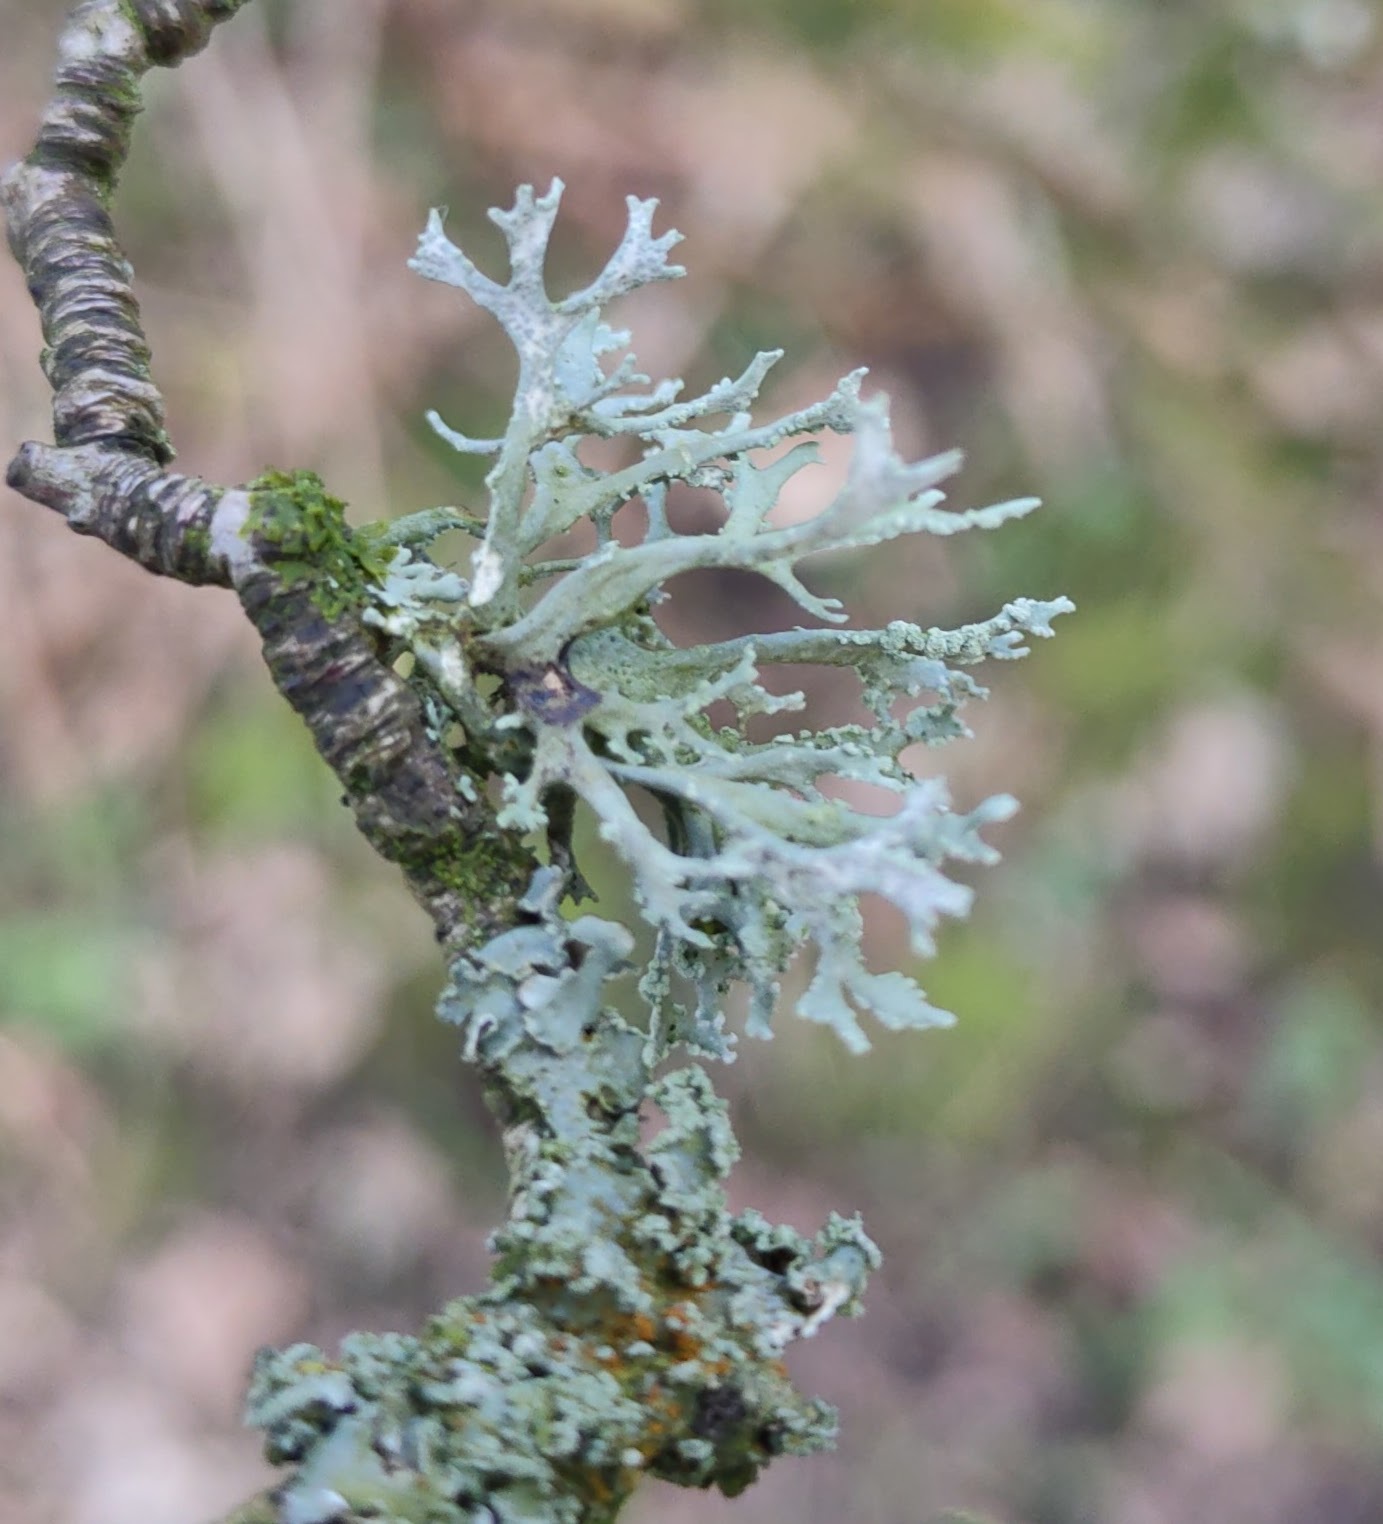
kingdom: Fungi
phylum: Ascomycota
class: Lecanoromycetes
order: Lecanorales
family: Parmeliaceae
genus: Evernia
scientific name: Evernia prunastri
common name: Oak moss
